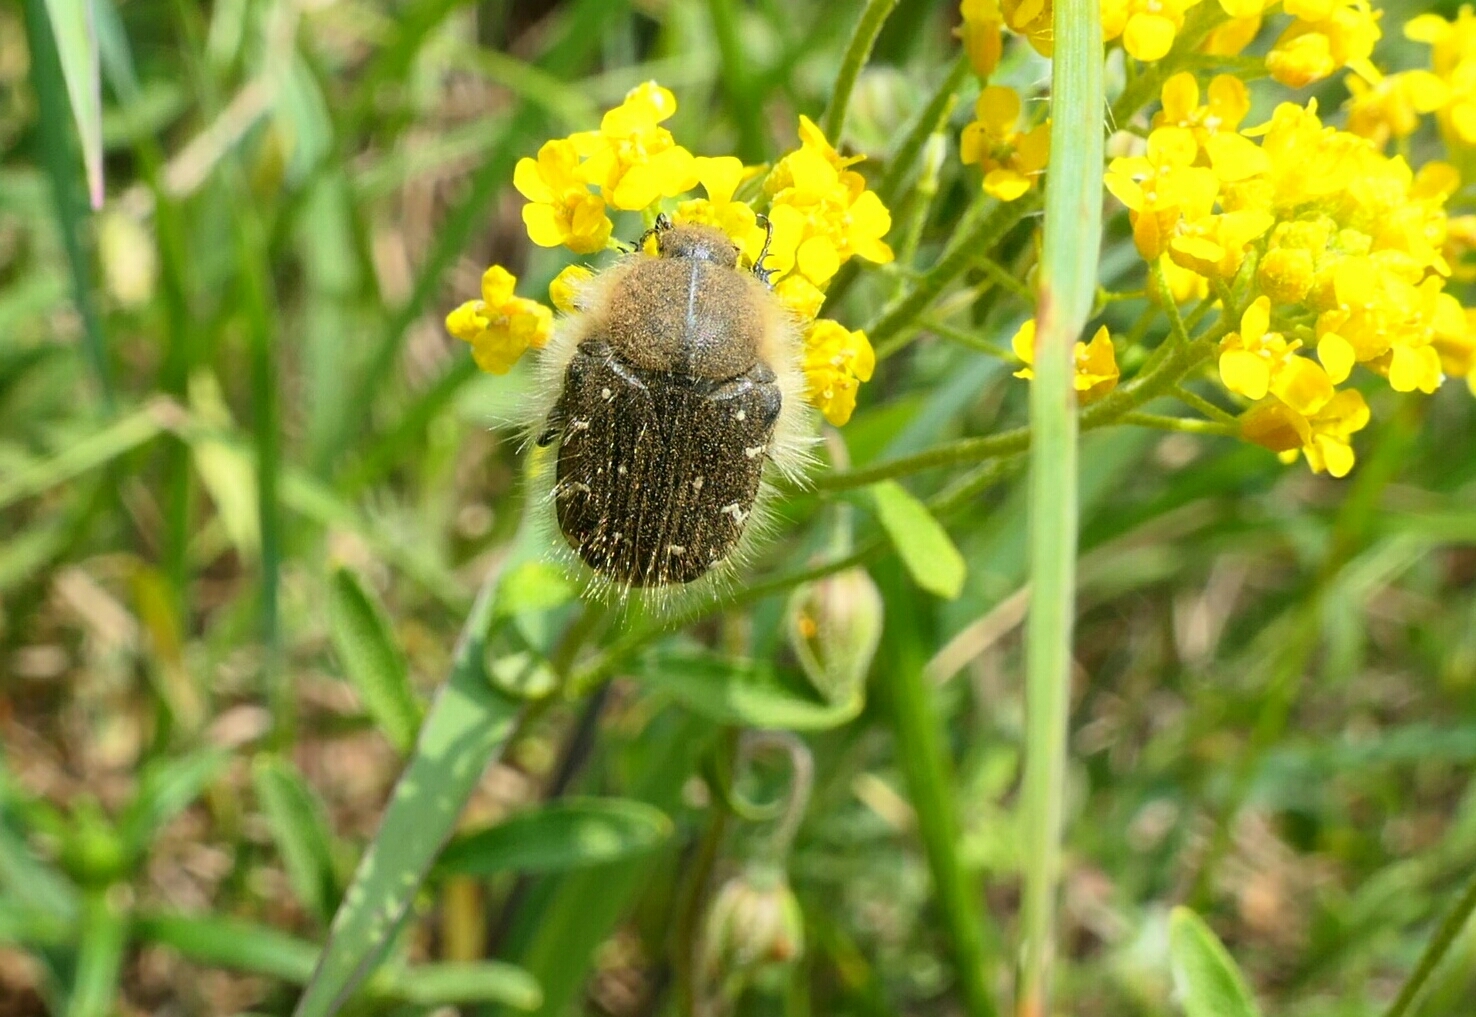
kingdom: Animalia
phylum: Arthropoda
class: Insecta
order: Coleoptera
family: Scarabaeidae
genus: Tropinota
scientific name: Tropinota squalida
